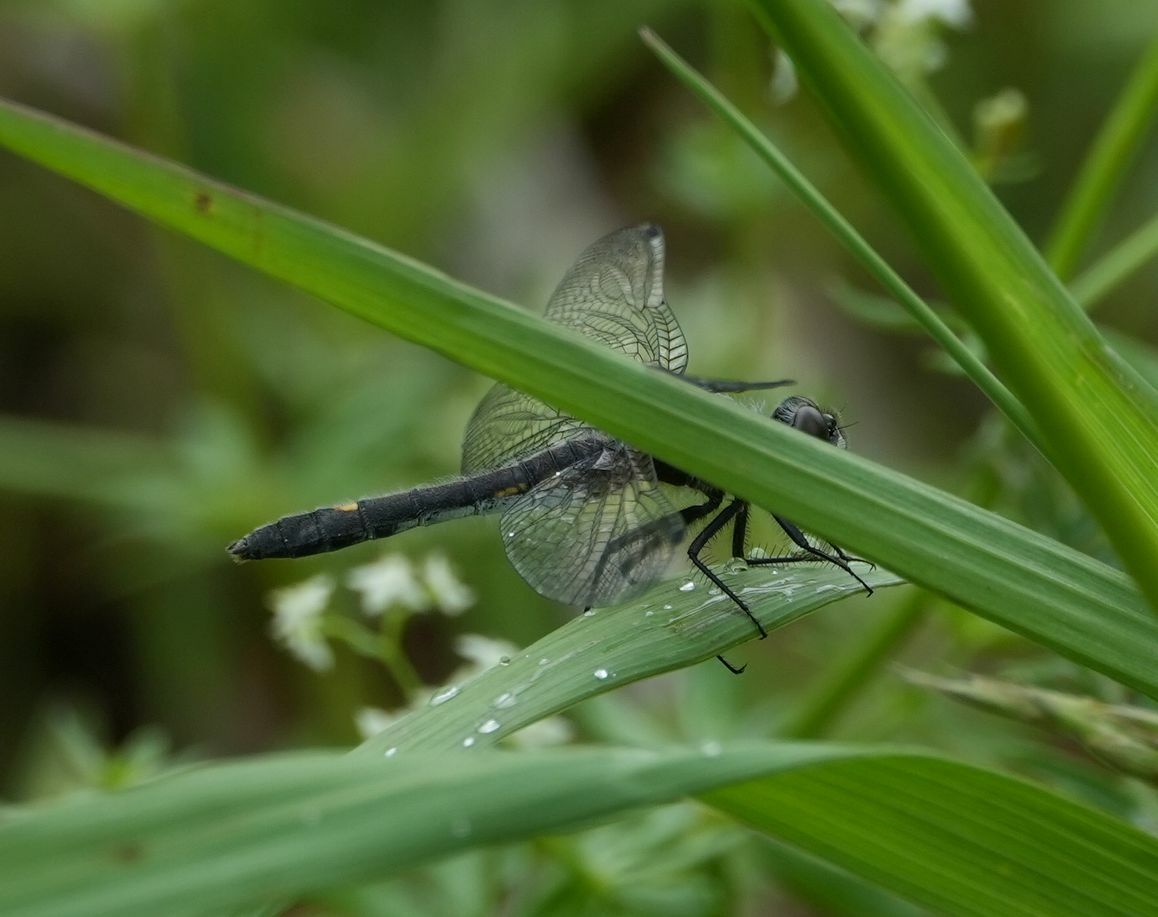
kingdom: Animalia
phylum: Arthropoda
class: Insecta
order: Odonata
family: Libellulidae
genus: Leucorrhinia
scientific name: Leucorrhinia intacta
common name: Dot-tailed whiteface
